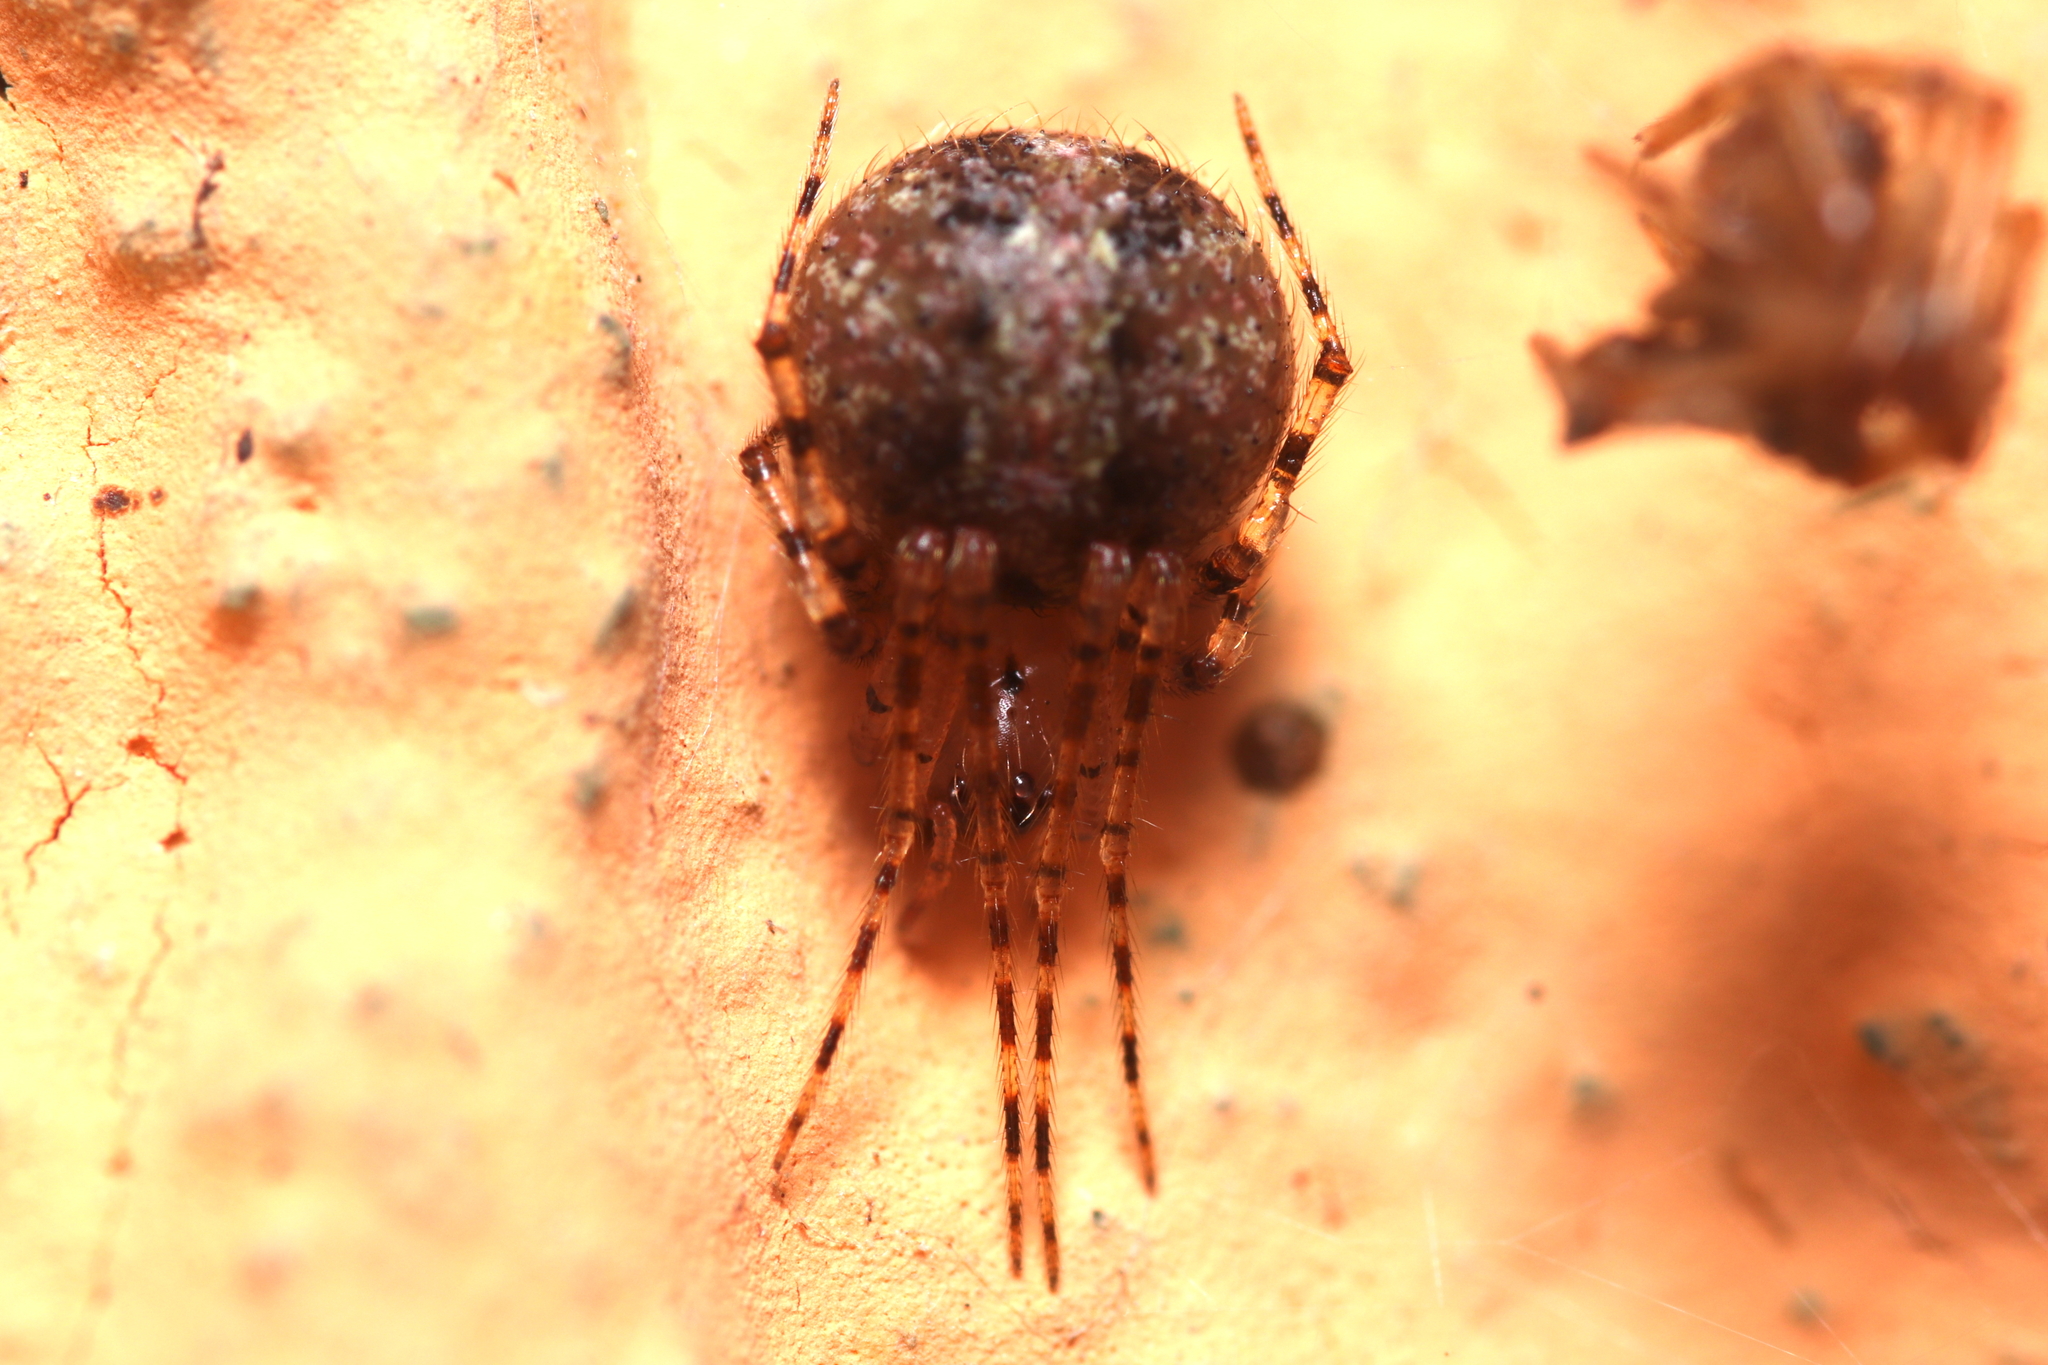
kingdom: Animalia
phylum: Arthropoda
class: Arachnida
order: Araneae
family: Theridiidae
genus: Platnickina
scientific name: Platnickina mneon
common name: Theridiid spidereater
